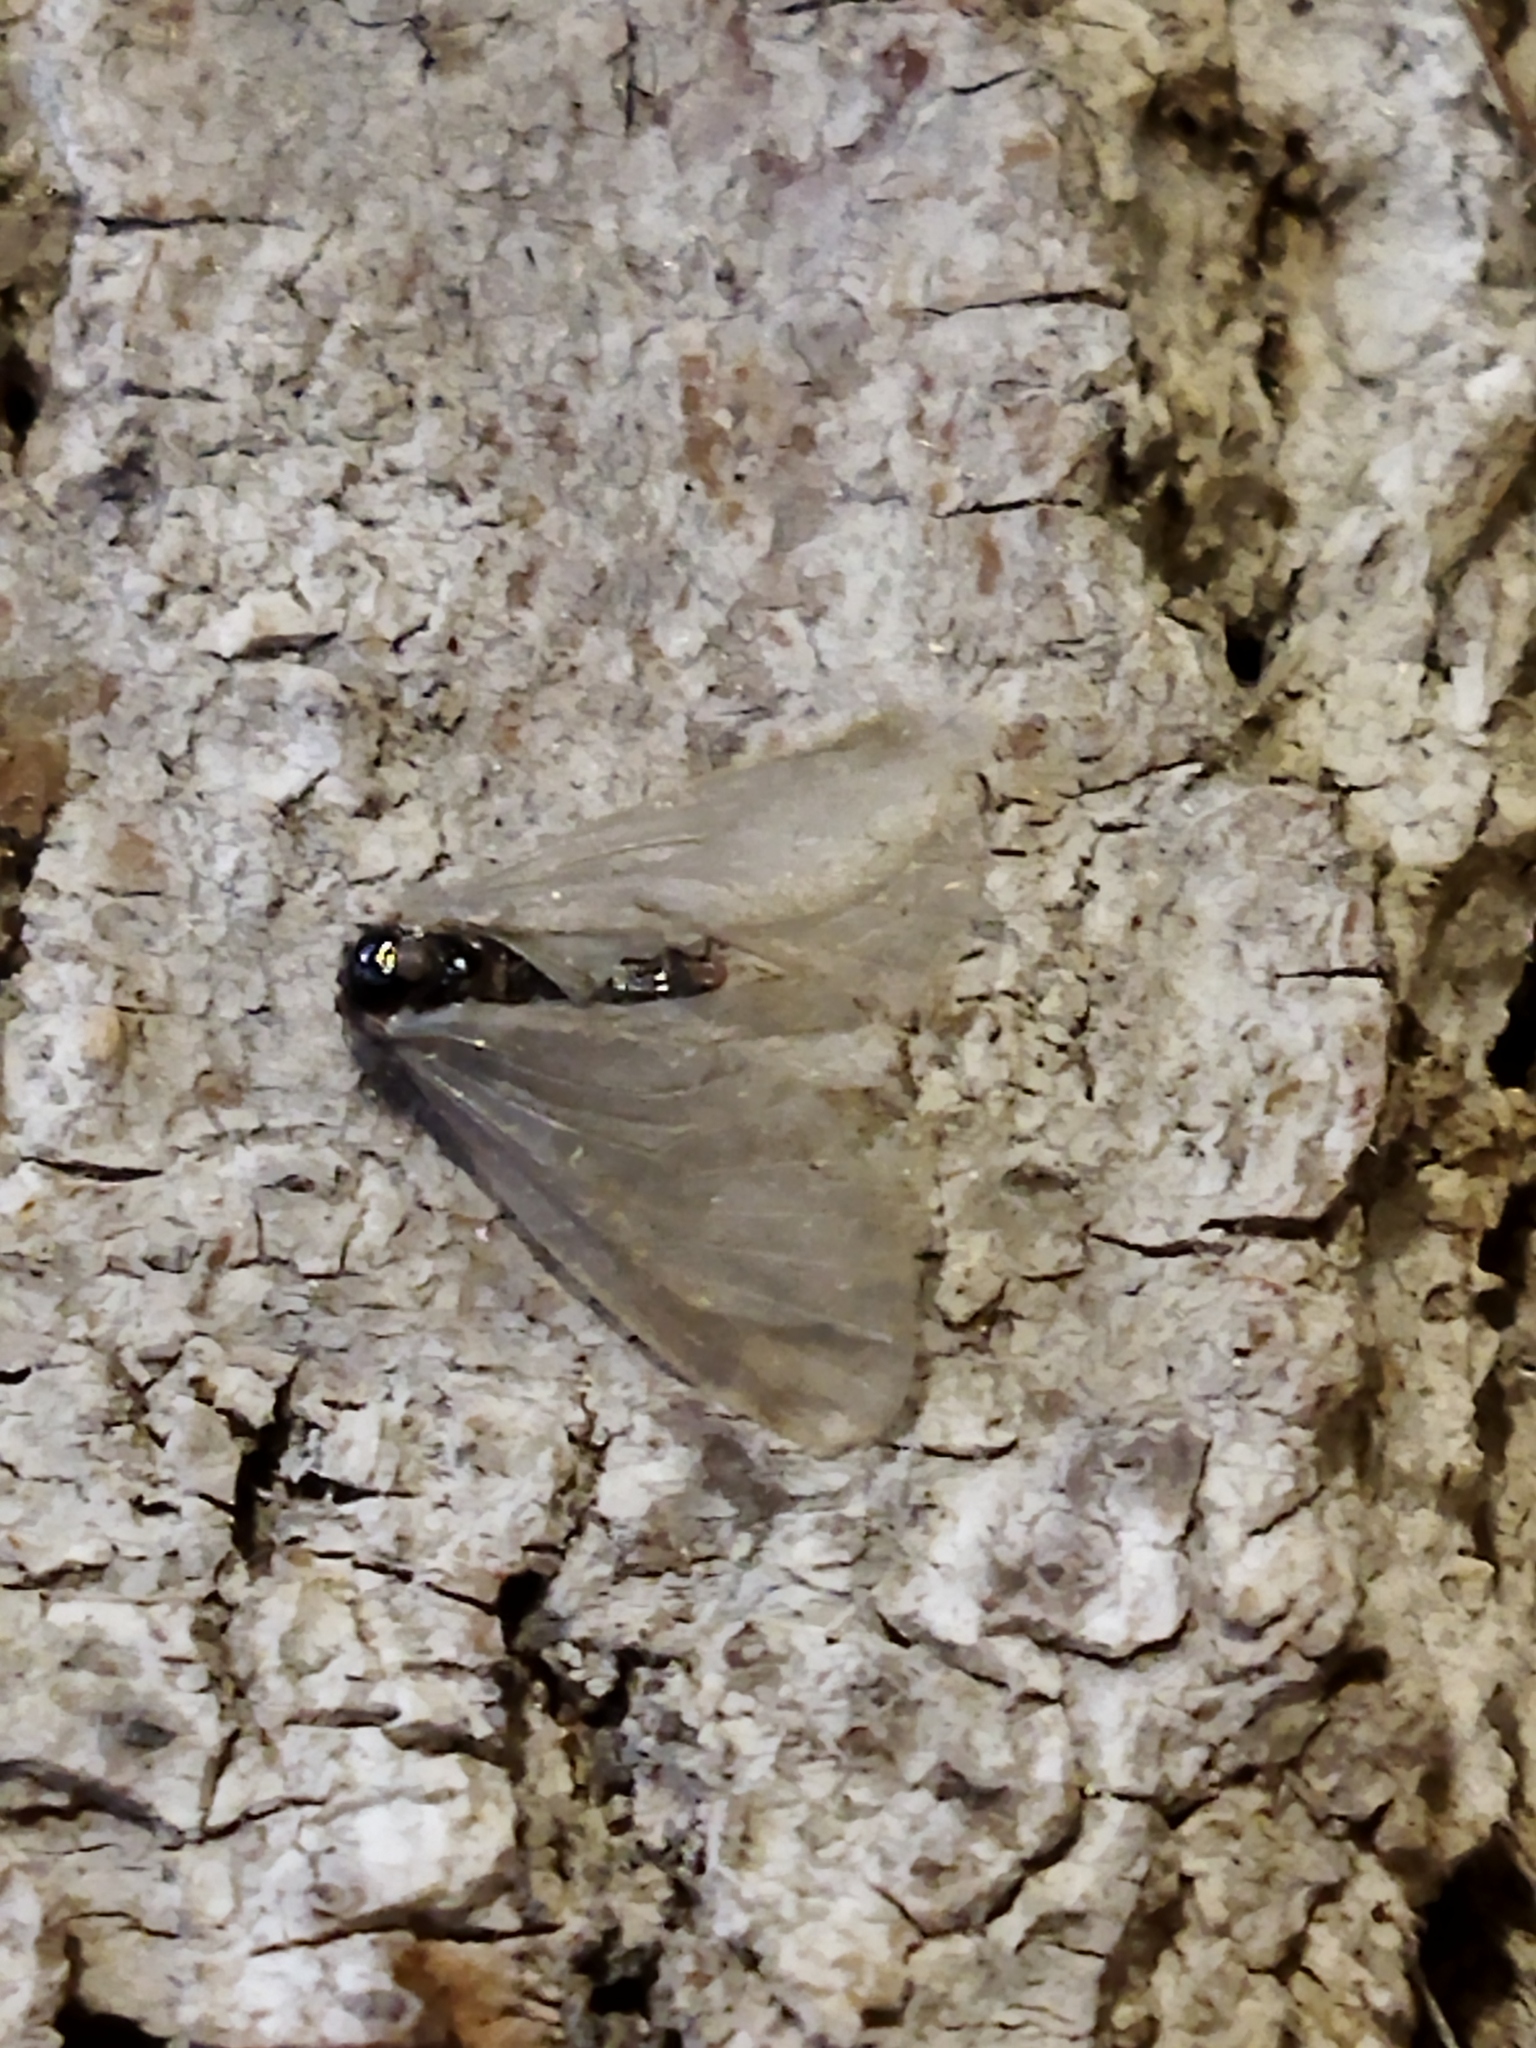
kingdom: Animalia
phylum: Arthropoda
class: Insecta
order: Lepidoptera
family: Psychidae
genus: Rebelia
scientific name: Rebelia perlucidella
